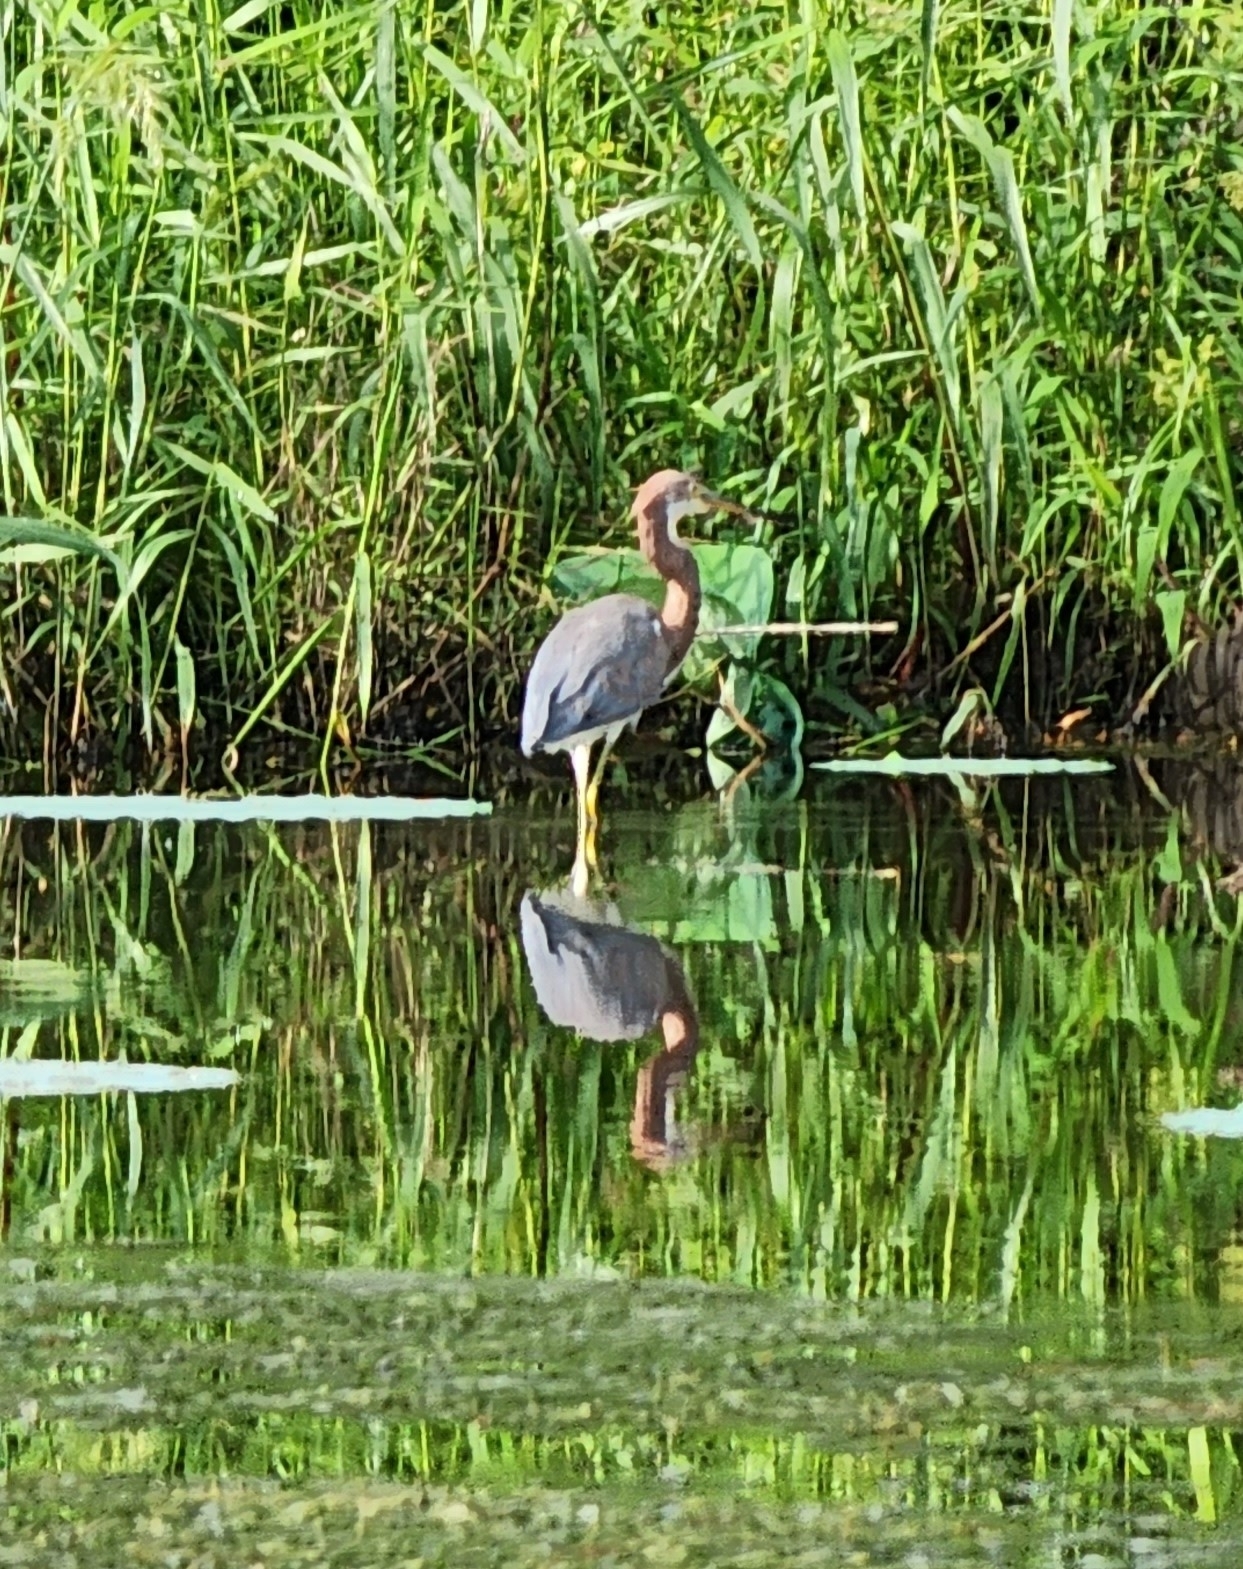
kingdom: Animalia
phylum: Chordata
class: Aves
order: Pelecaniformes
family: Ardeidae
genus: Egretta
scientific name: Egretta tricolor
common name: Tricolored heron
